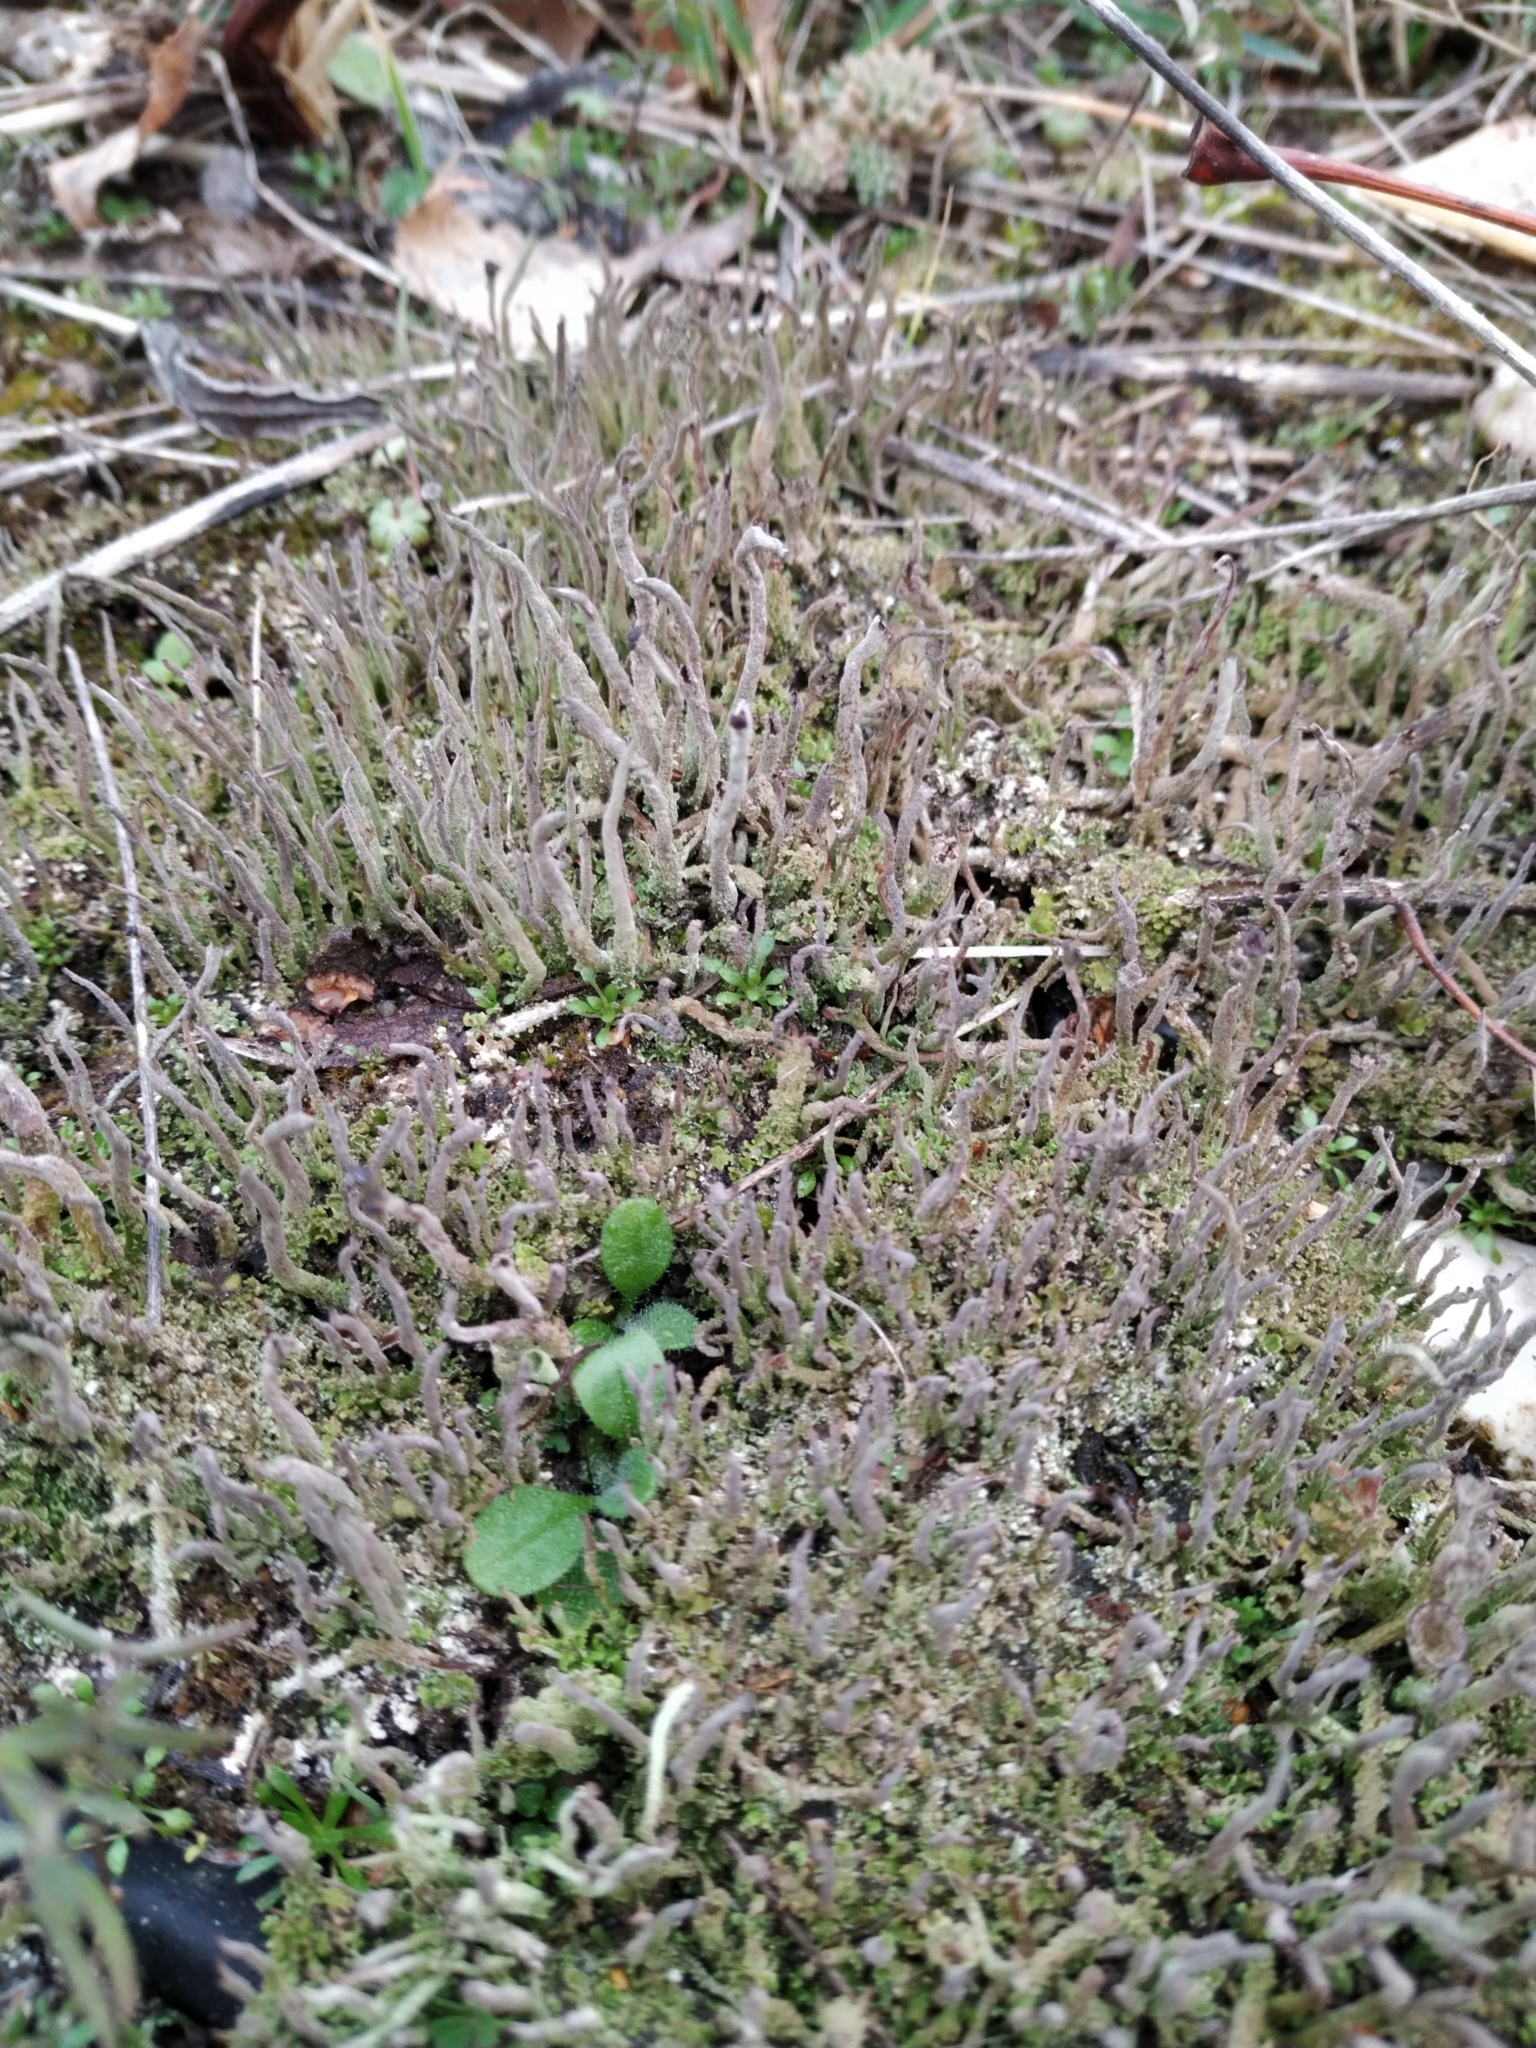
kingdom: Fungi
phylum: Ascomycota
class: Lecanoromycetes
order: Lecanorales
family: Cladoniaceae
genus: Cladonia
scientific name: Cladonia
